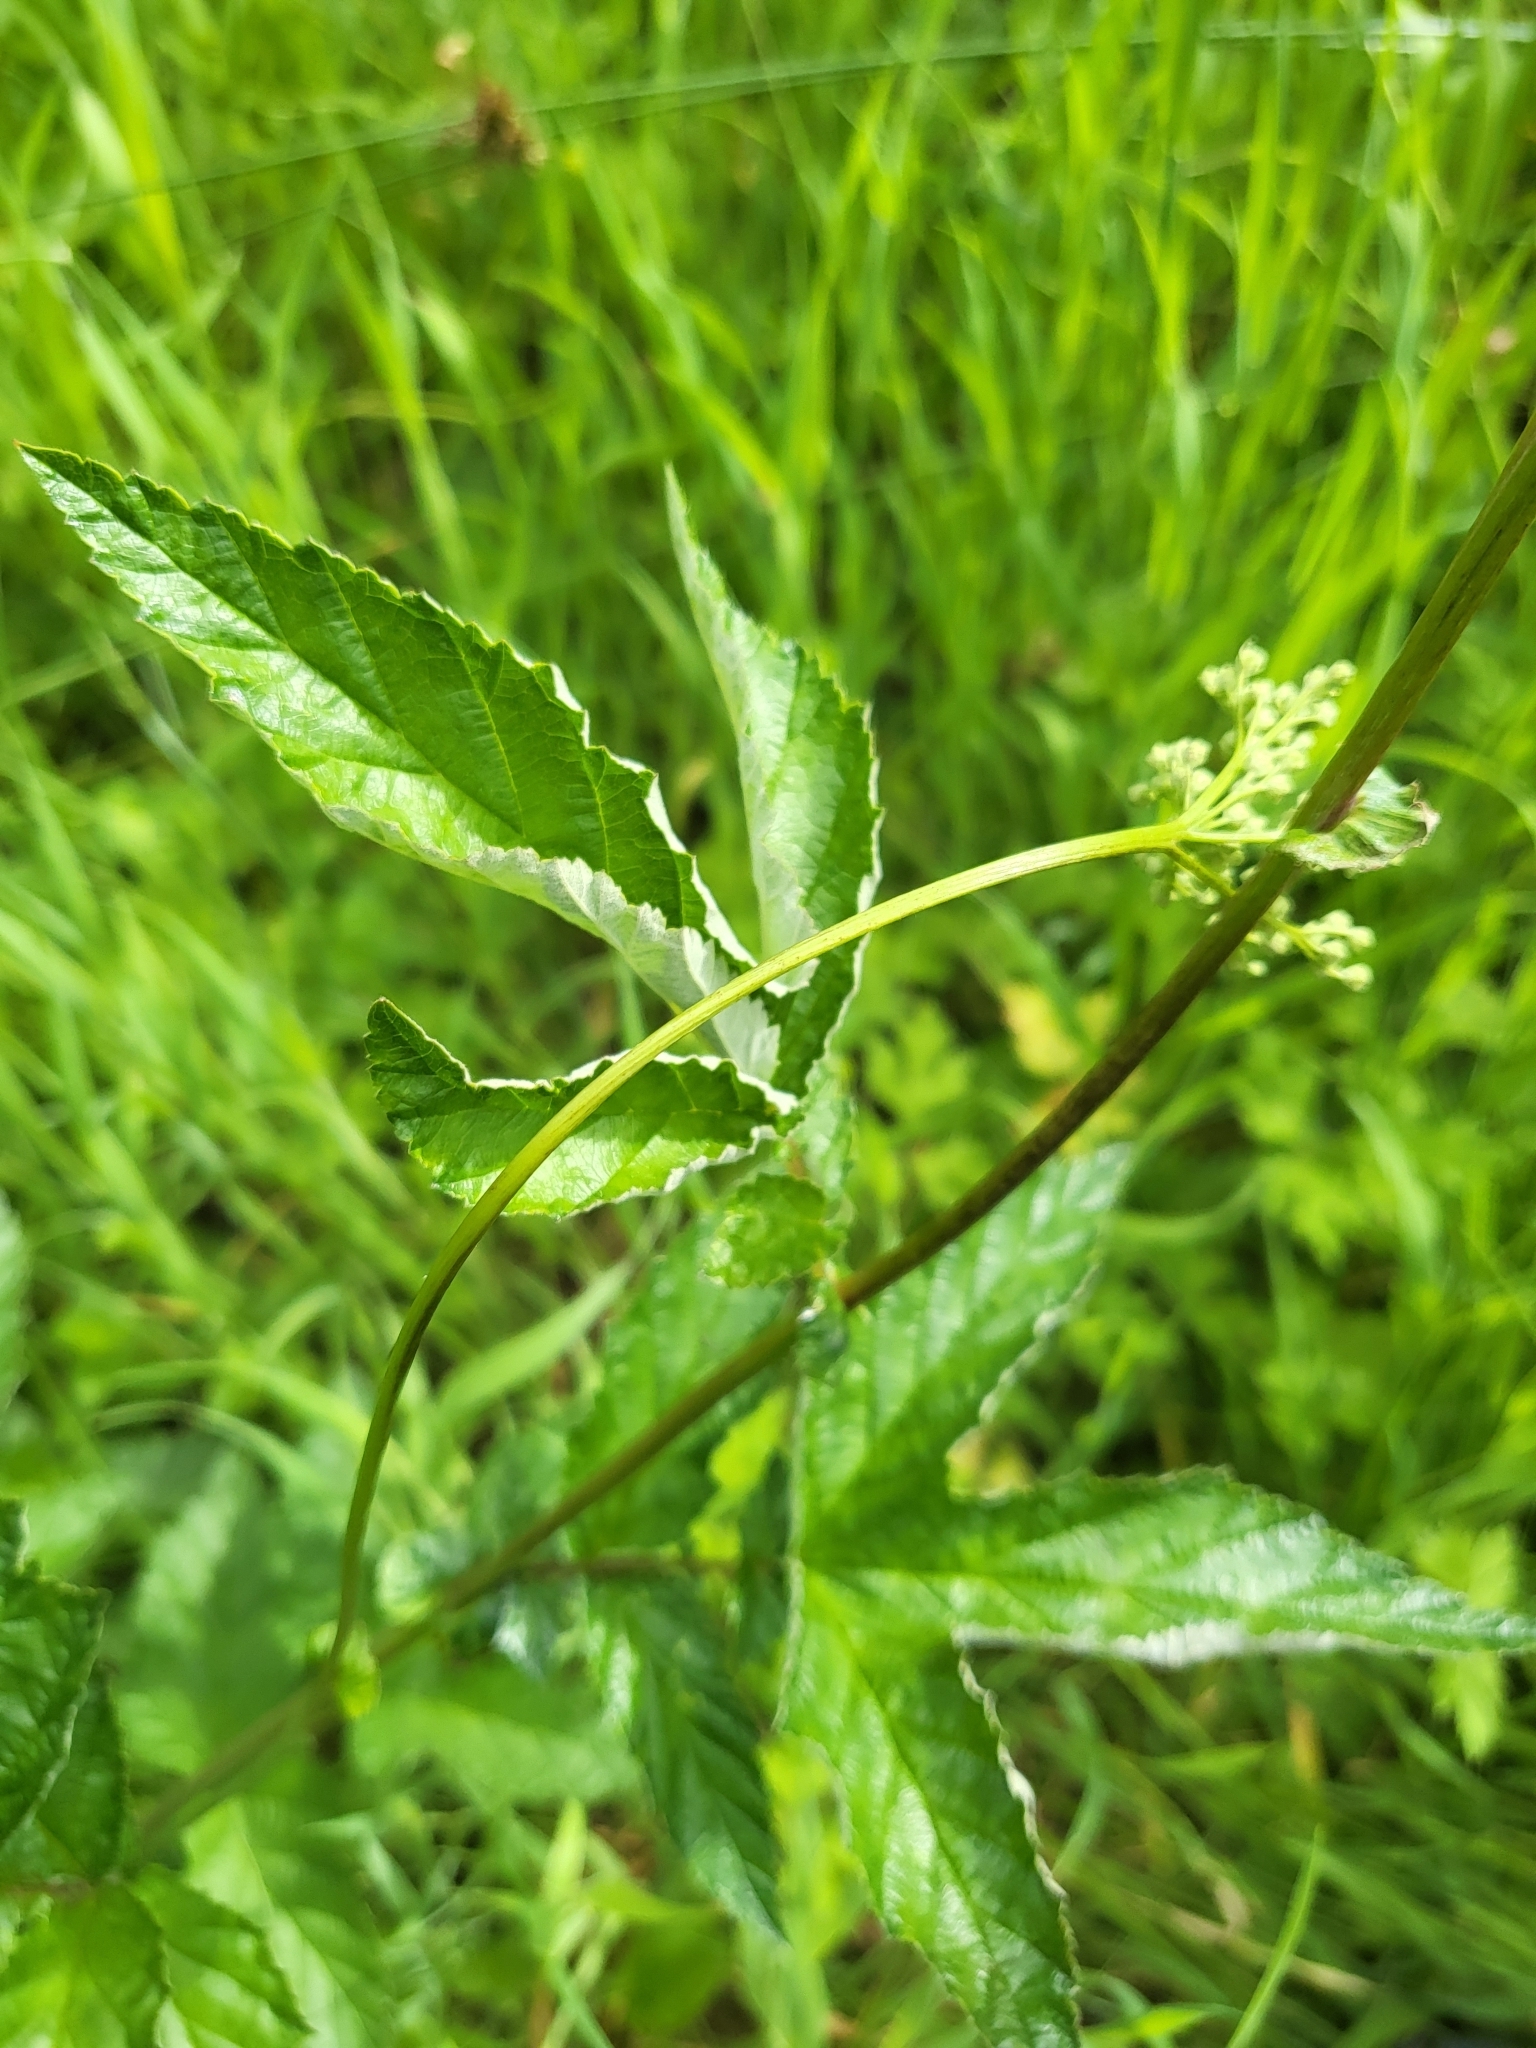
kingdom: Plantae
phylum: Tracheophyta
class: Magnoliopsida
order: Rosales
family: Rosaceae
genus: Filipendula
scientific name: Filipendula ulmaria
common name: Meadowsweet
